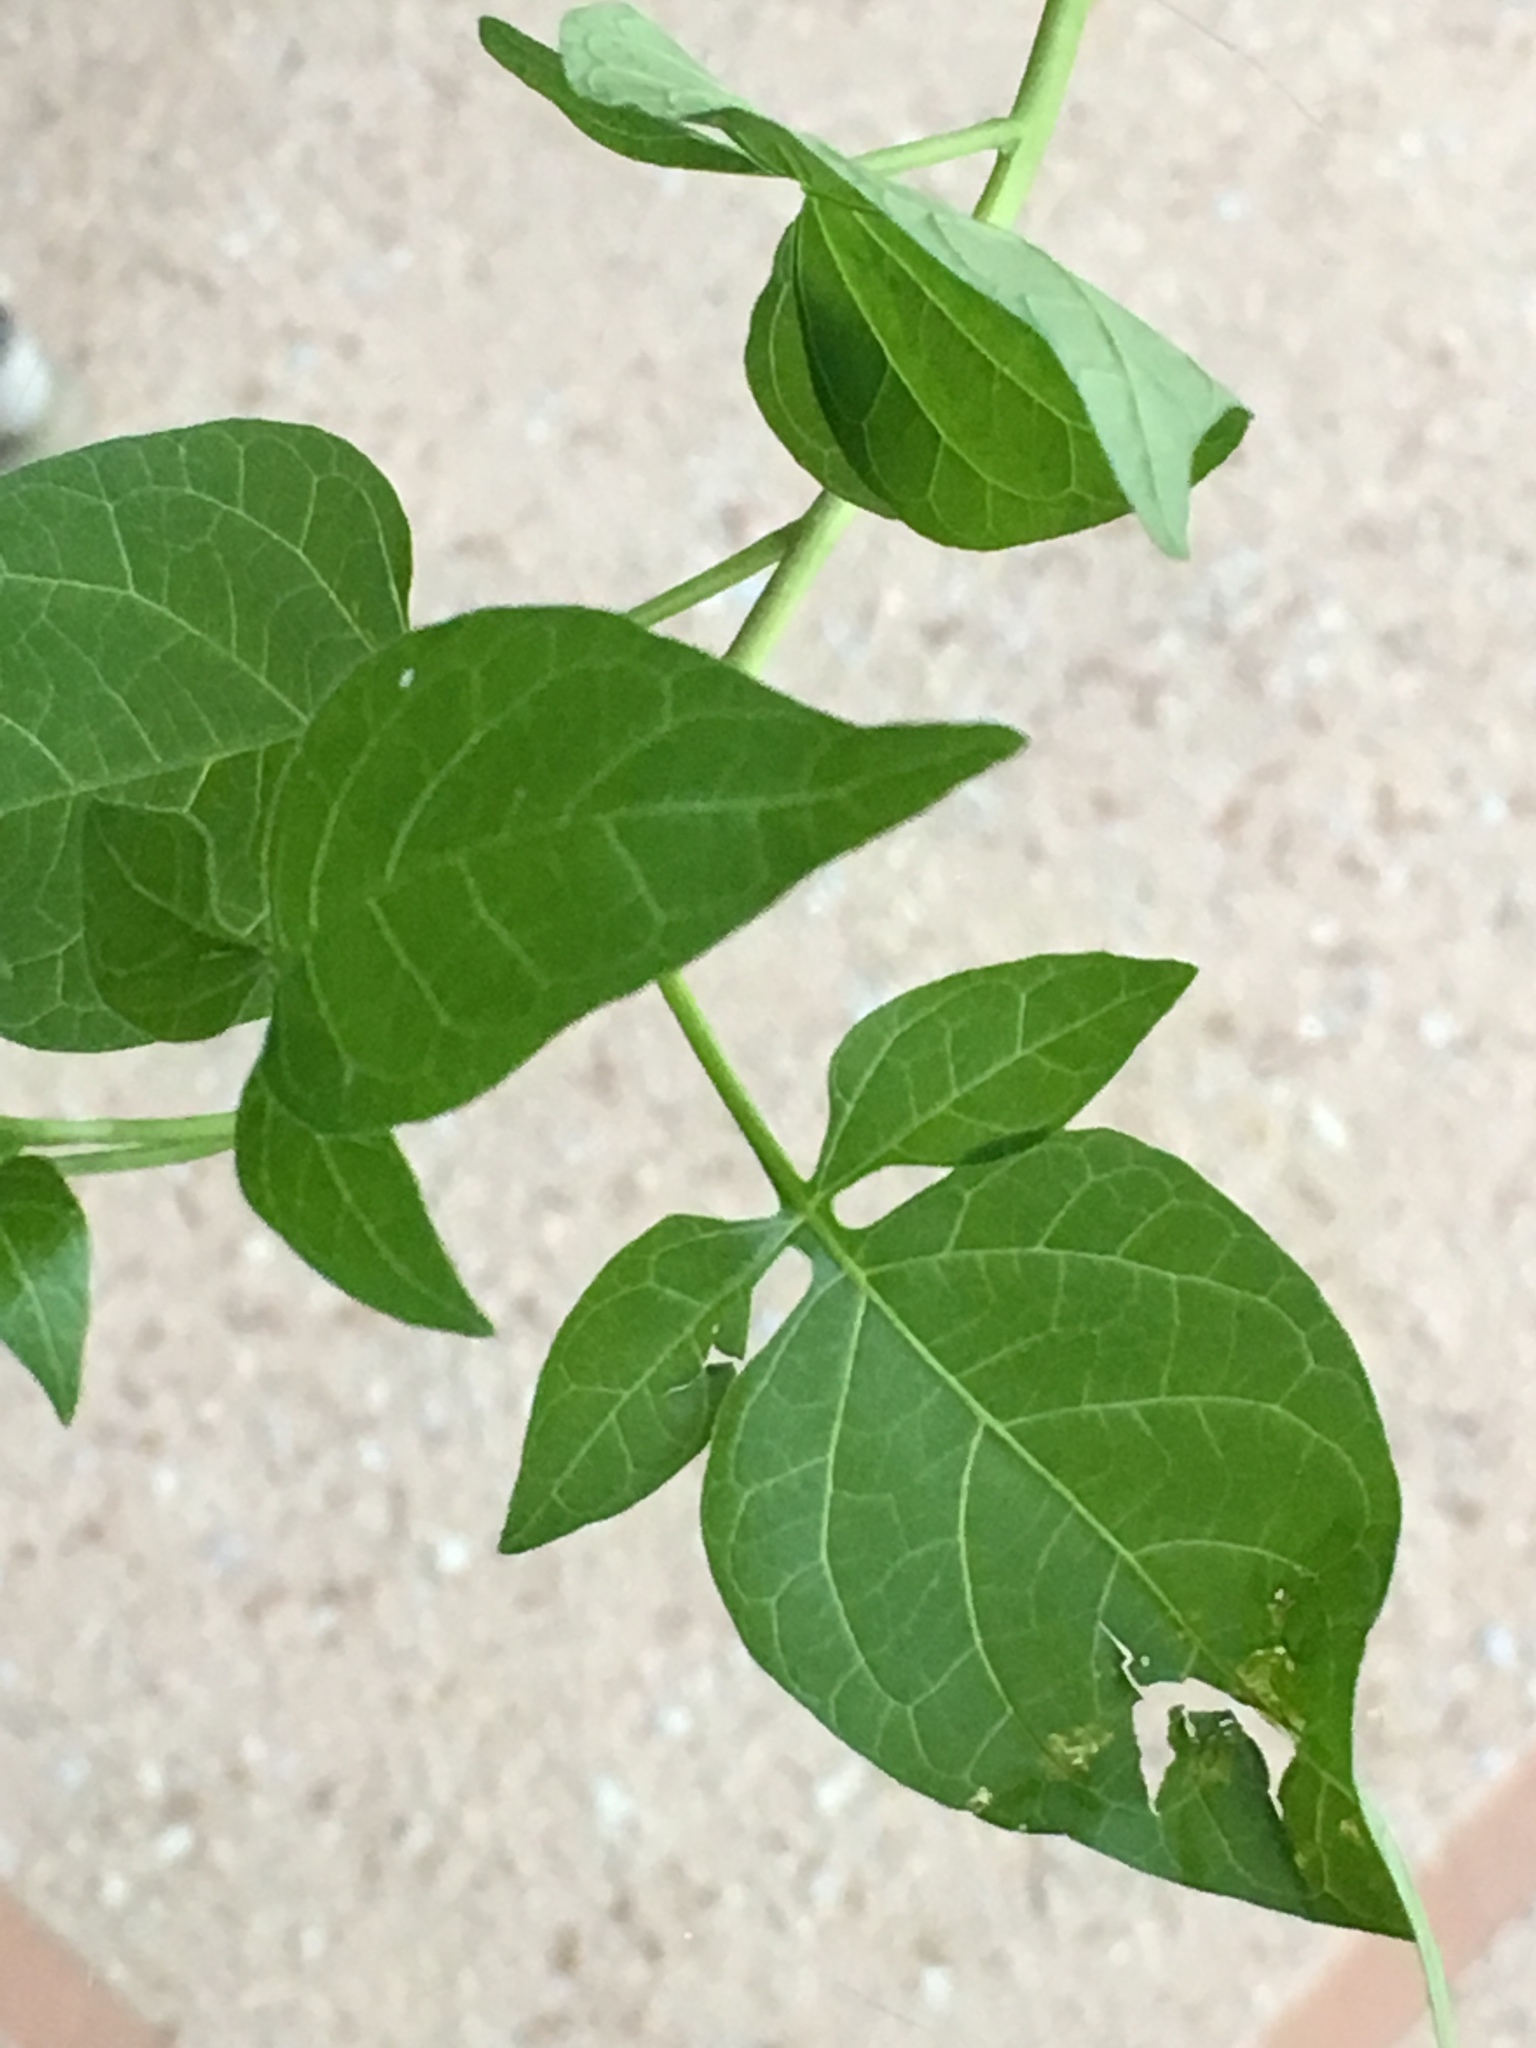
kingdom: Plantae
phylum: Tracheophyta
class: Magnoliopsida
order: Solanales
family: Solanaceae
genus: Solanum
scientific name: Solanum dulcamara
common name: Climbing nightshade
